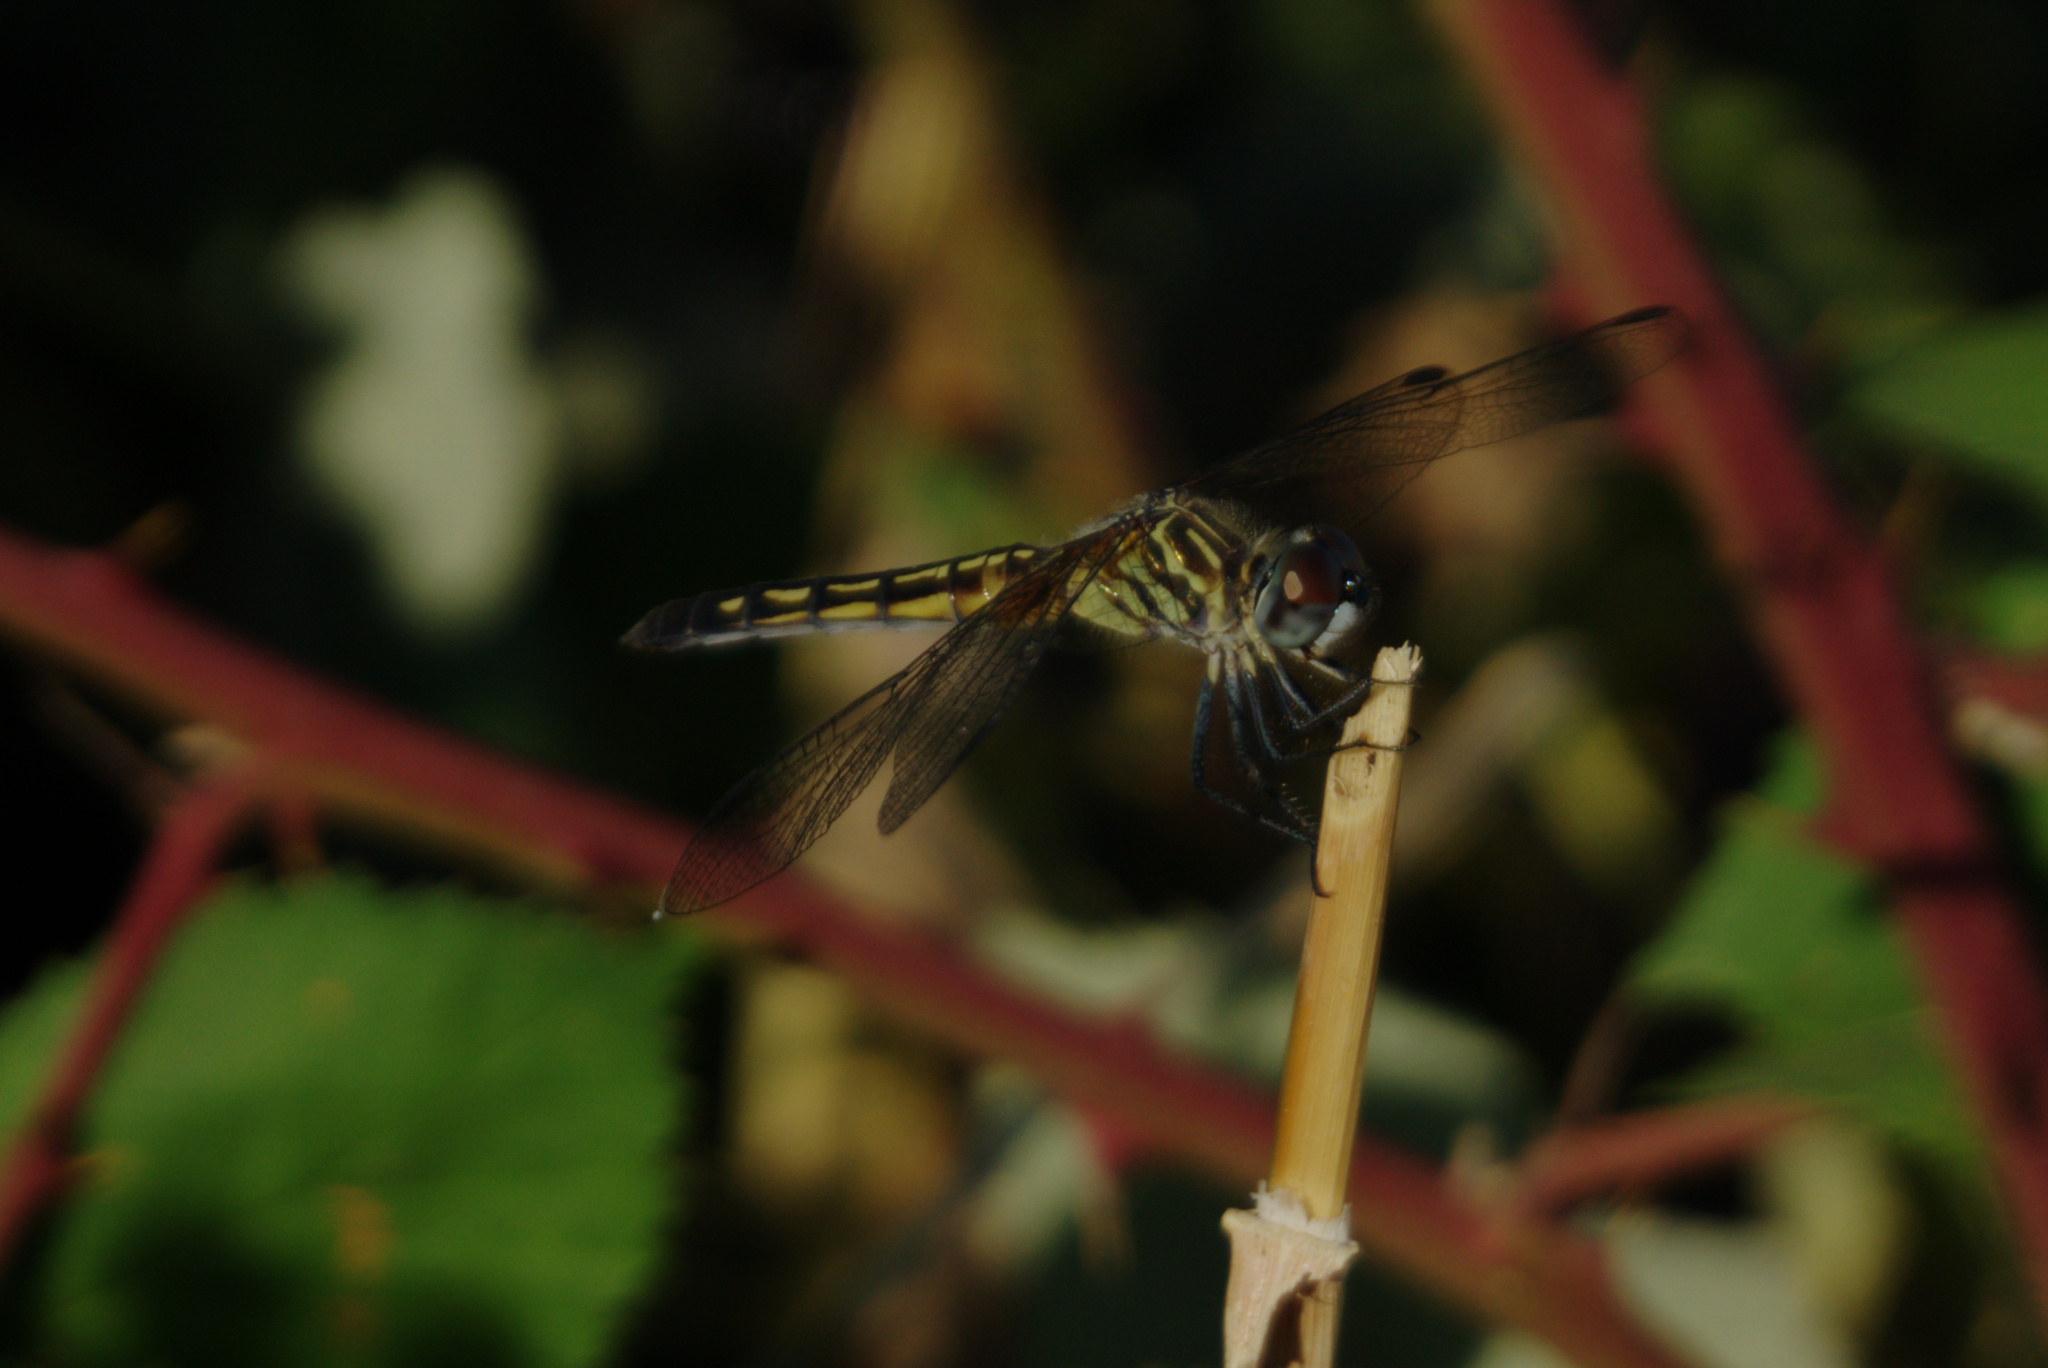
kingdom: Animalia
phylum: Arthropoda
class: Insecta
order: Odonata
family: Libellulidae
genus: Pachydiplax
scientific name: Pachydiplax longipennis
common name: Blue dasher
